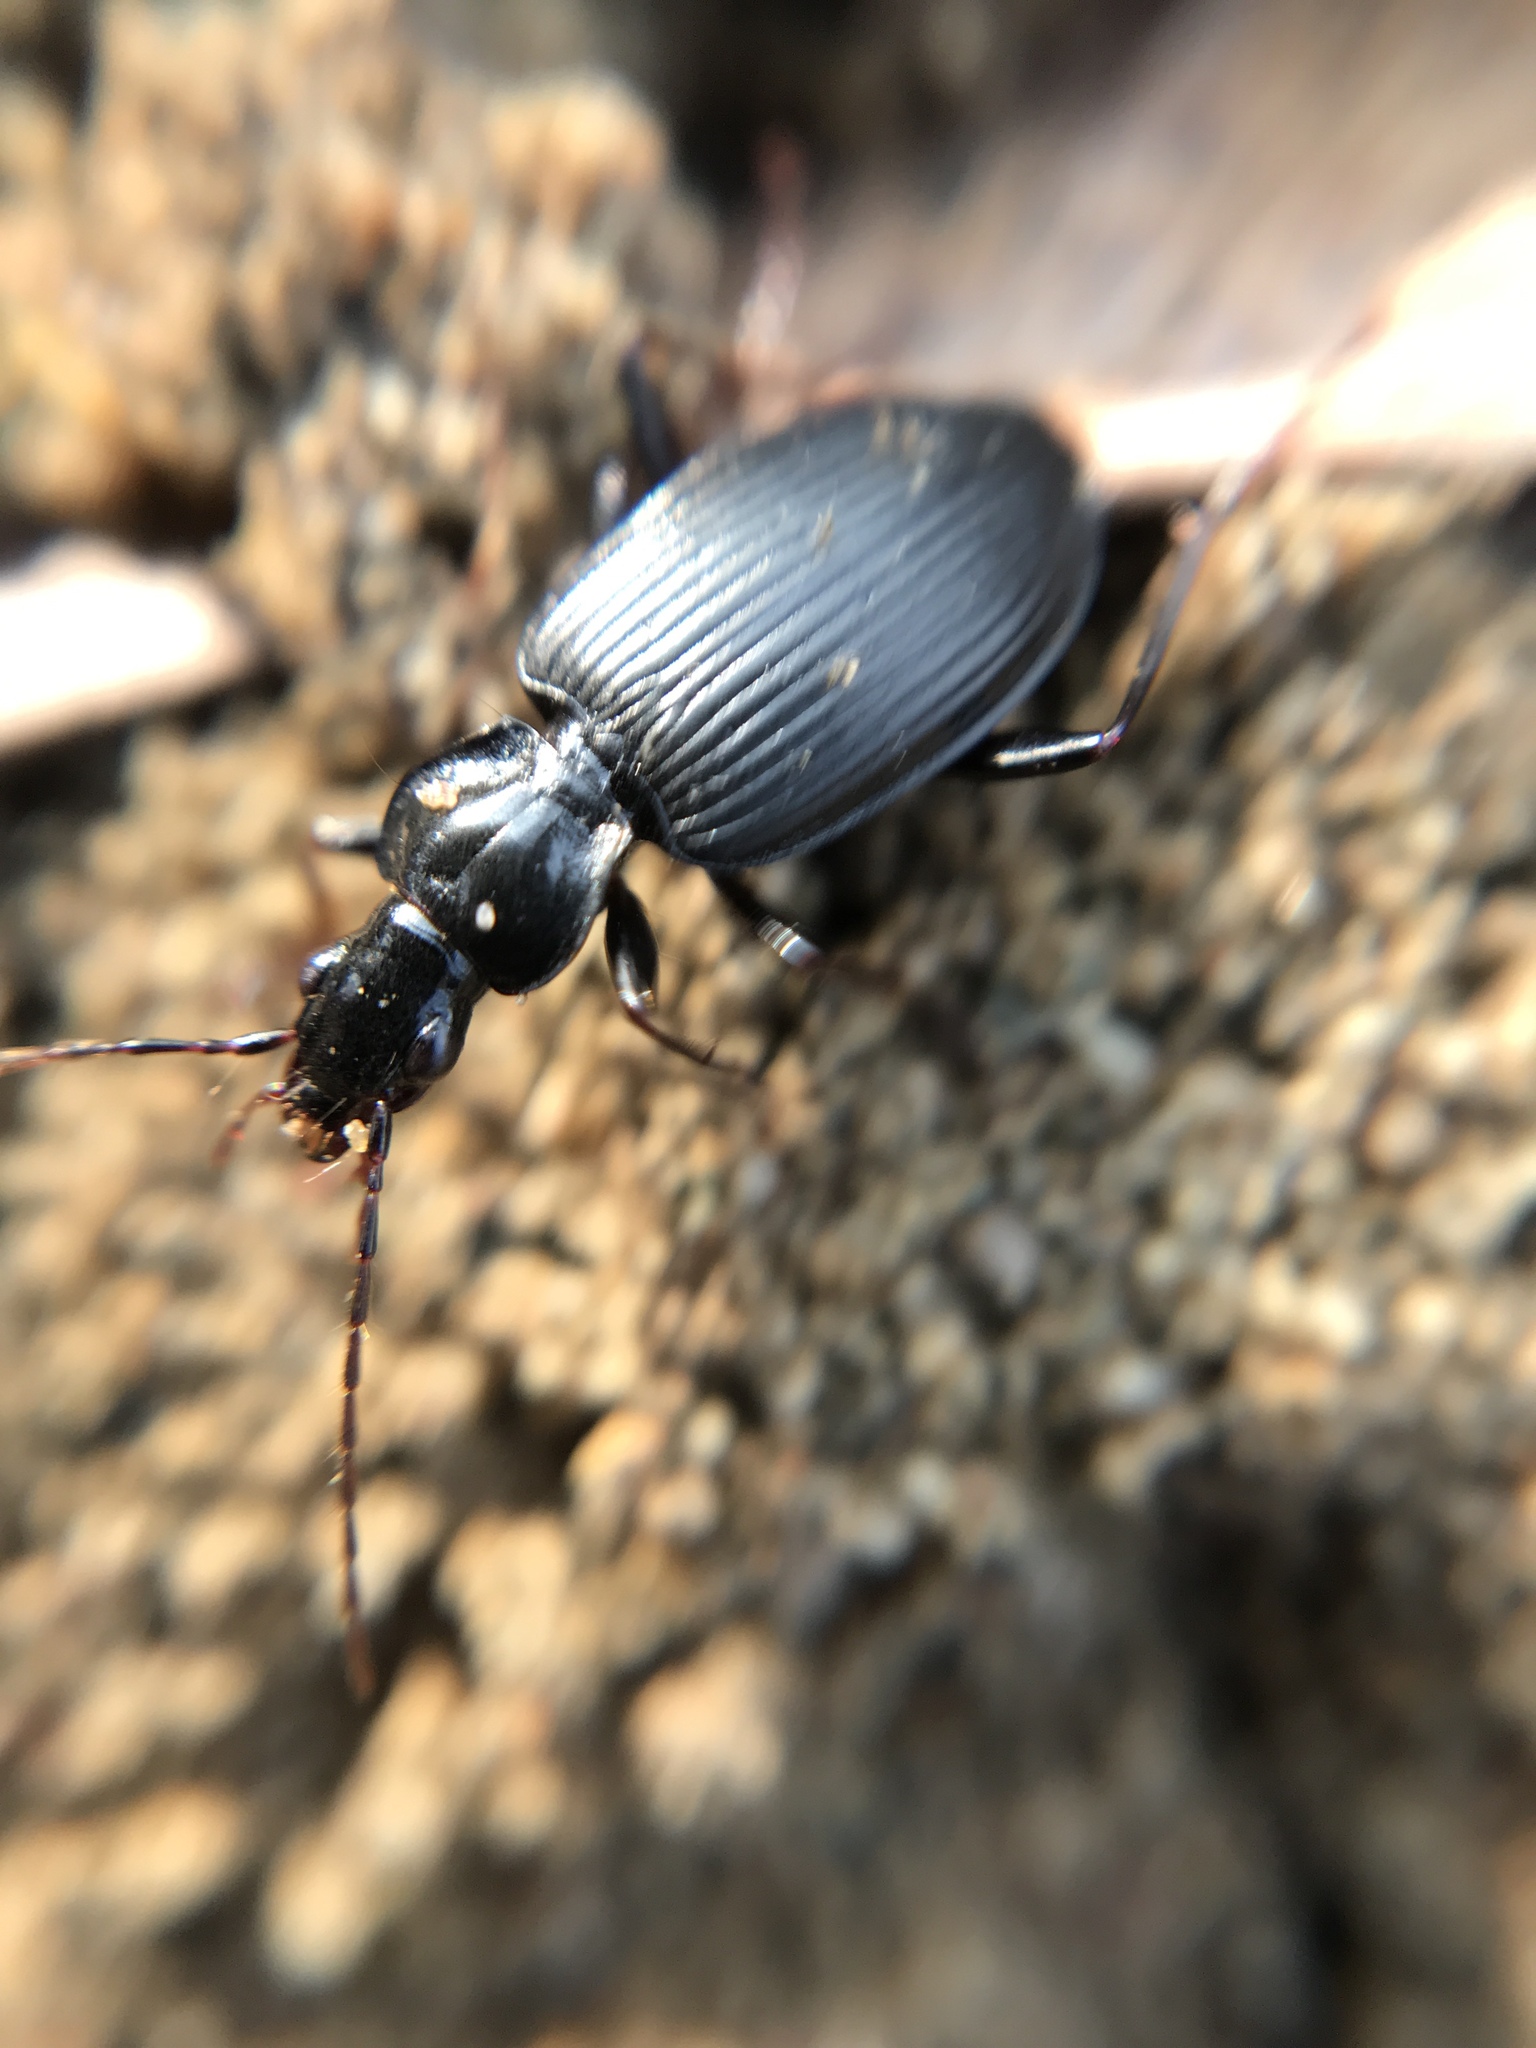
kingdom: Animalia
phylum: Arthropoda
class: Insecta
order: Coleoptera
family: Carabidae
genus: Platynus
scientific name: Platynus assimilis
